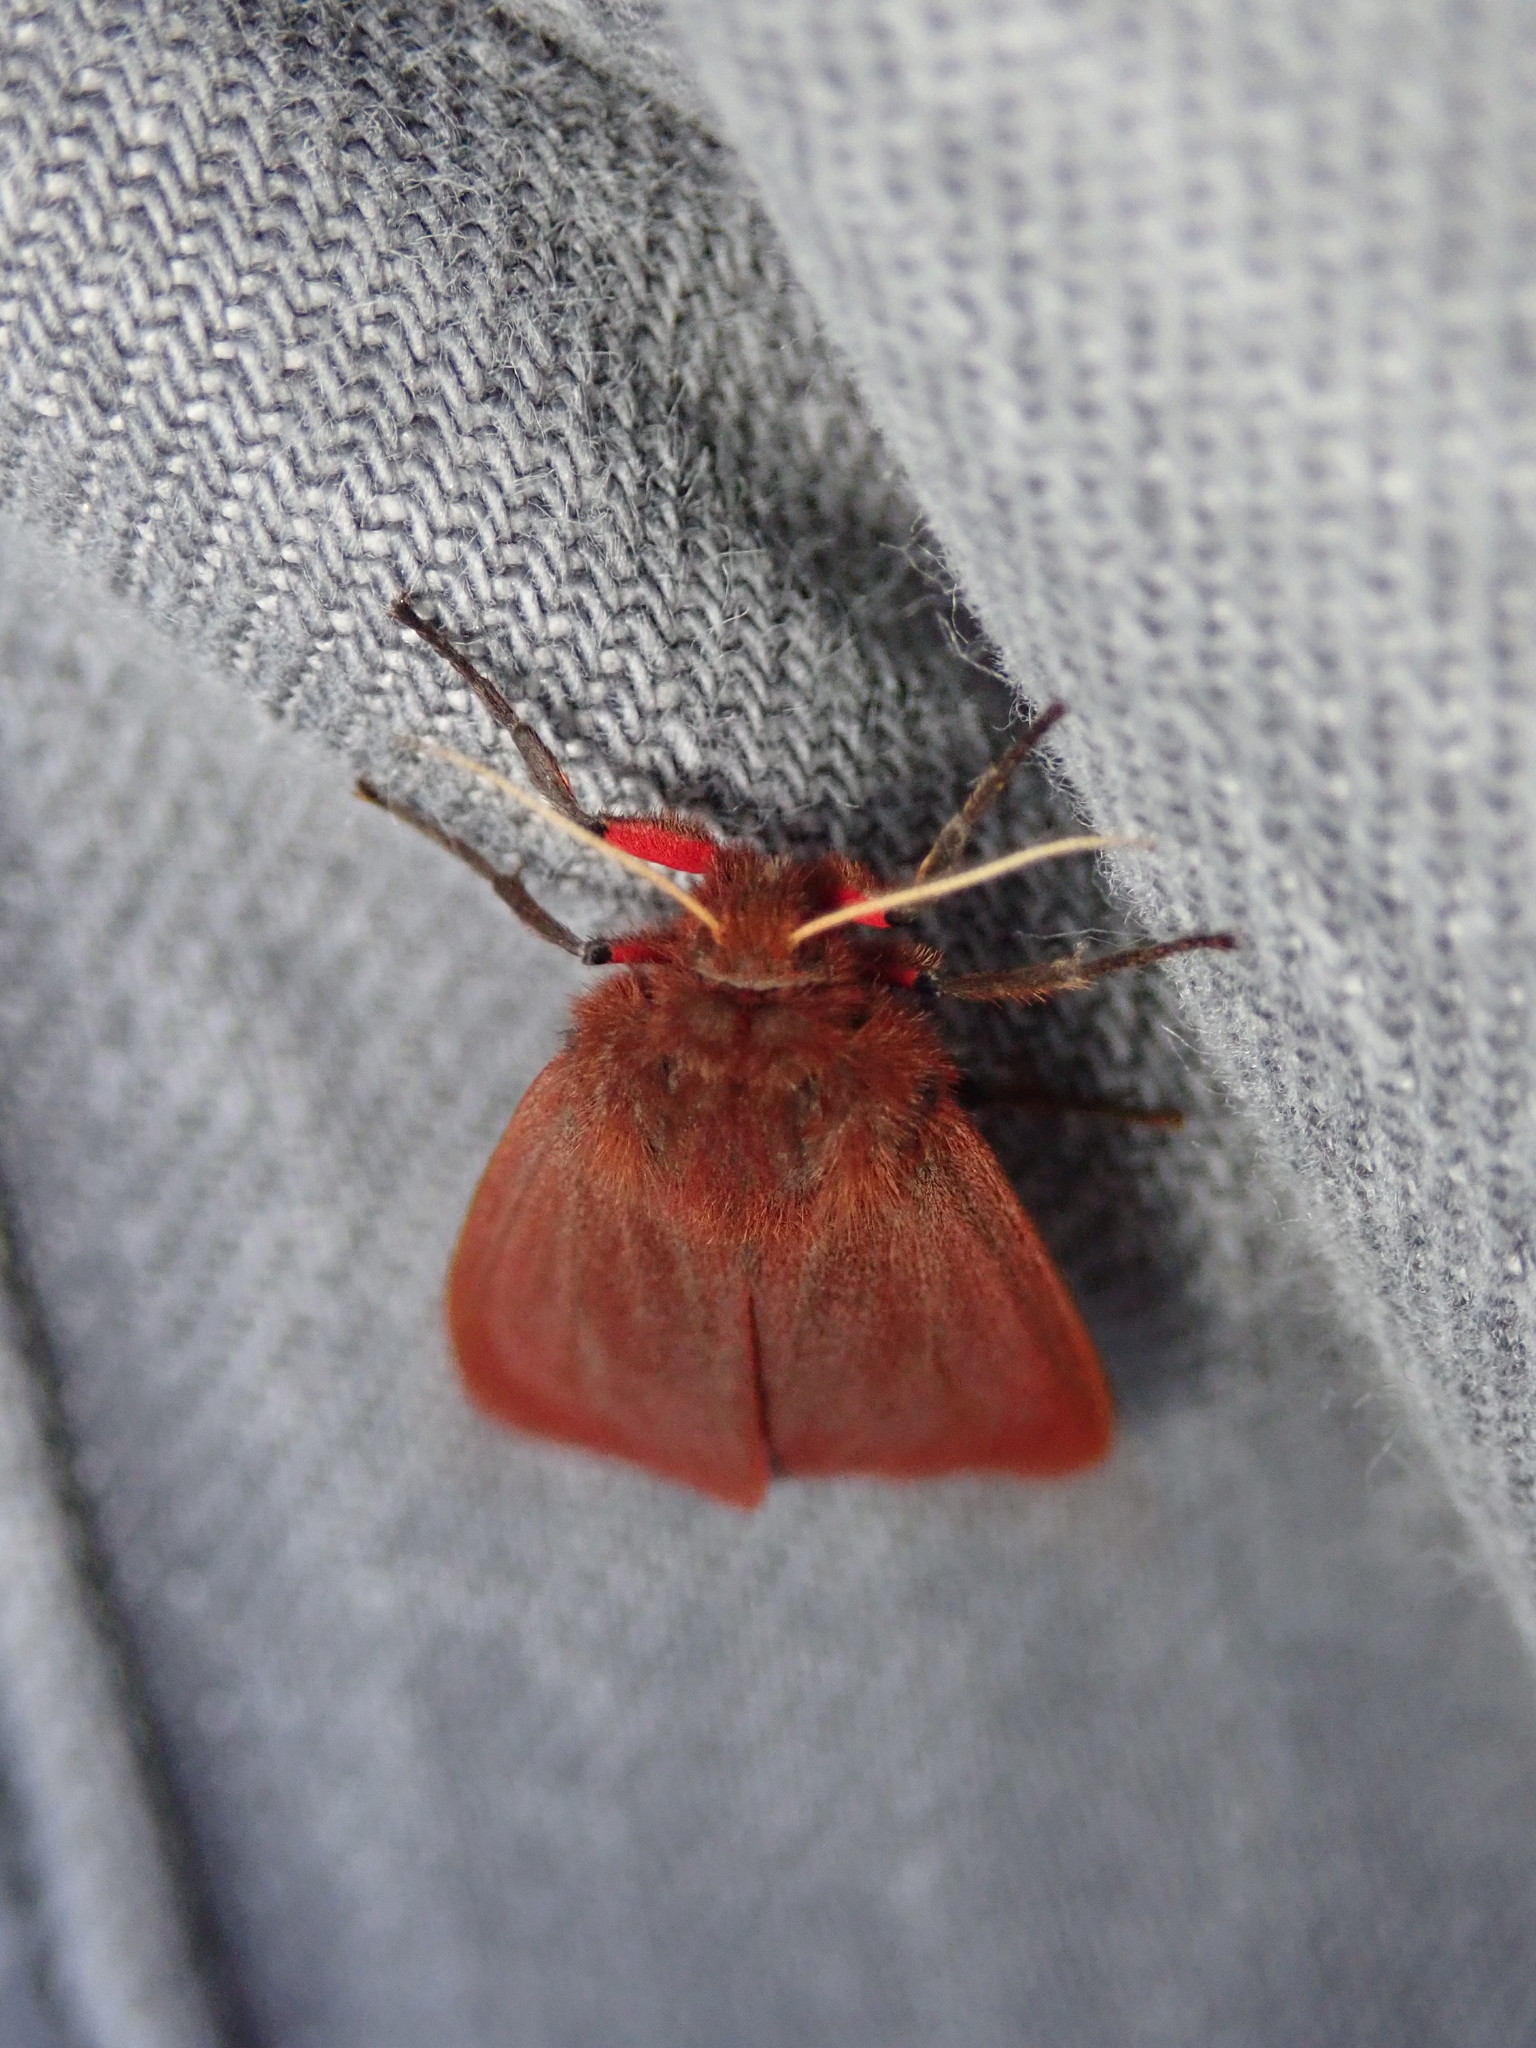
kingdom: Animalia
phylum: Arthropoda
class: Insecta
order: Lepidoptera
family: Erebidae
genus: Phragmatobia
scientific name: Phragmatobia fuliginosa
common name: Ruby tiger
